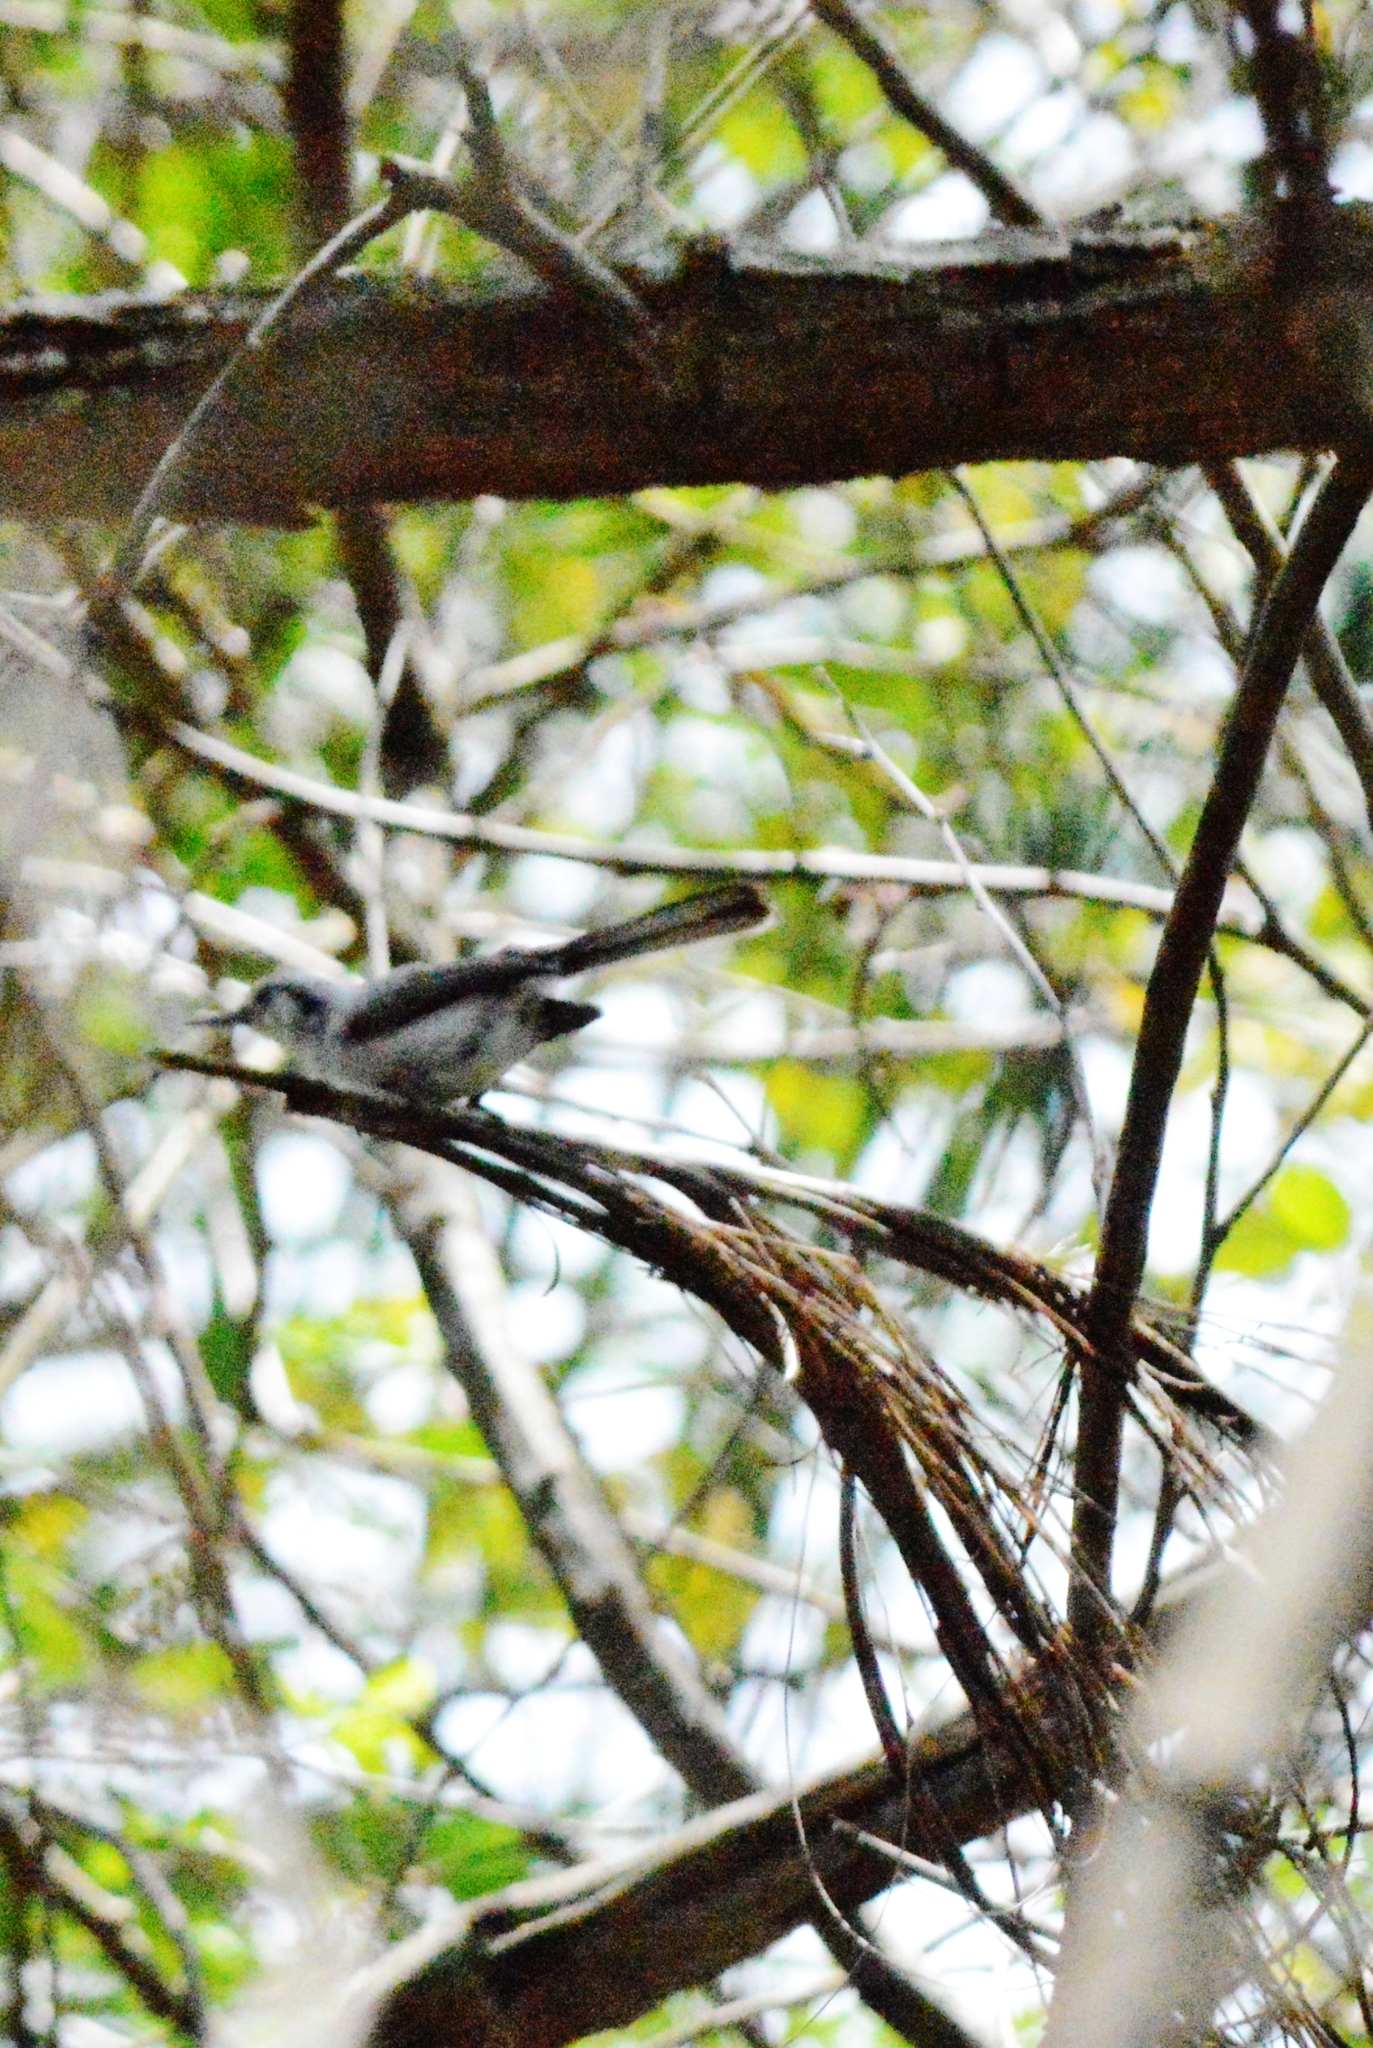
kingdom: Animalia
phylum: Chordata
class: Aves
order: Passeriformes
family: Polioptilidae
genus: Polioptila
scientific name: Polioptila dumicola
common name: Masked gnatcatcher
